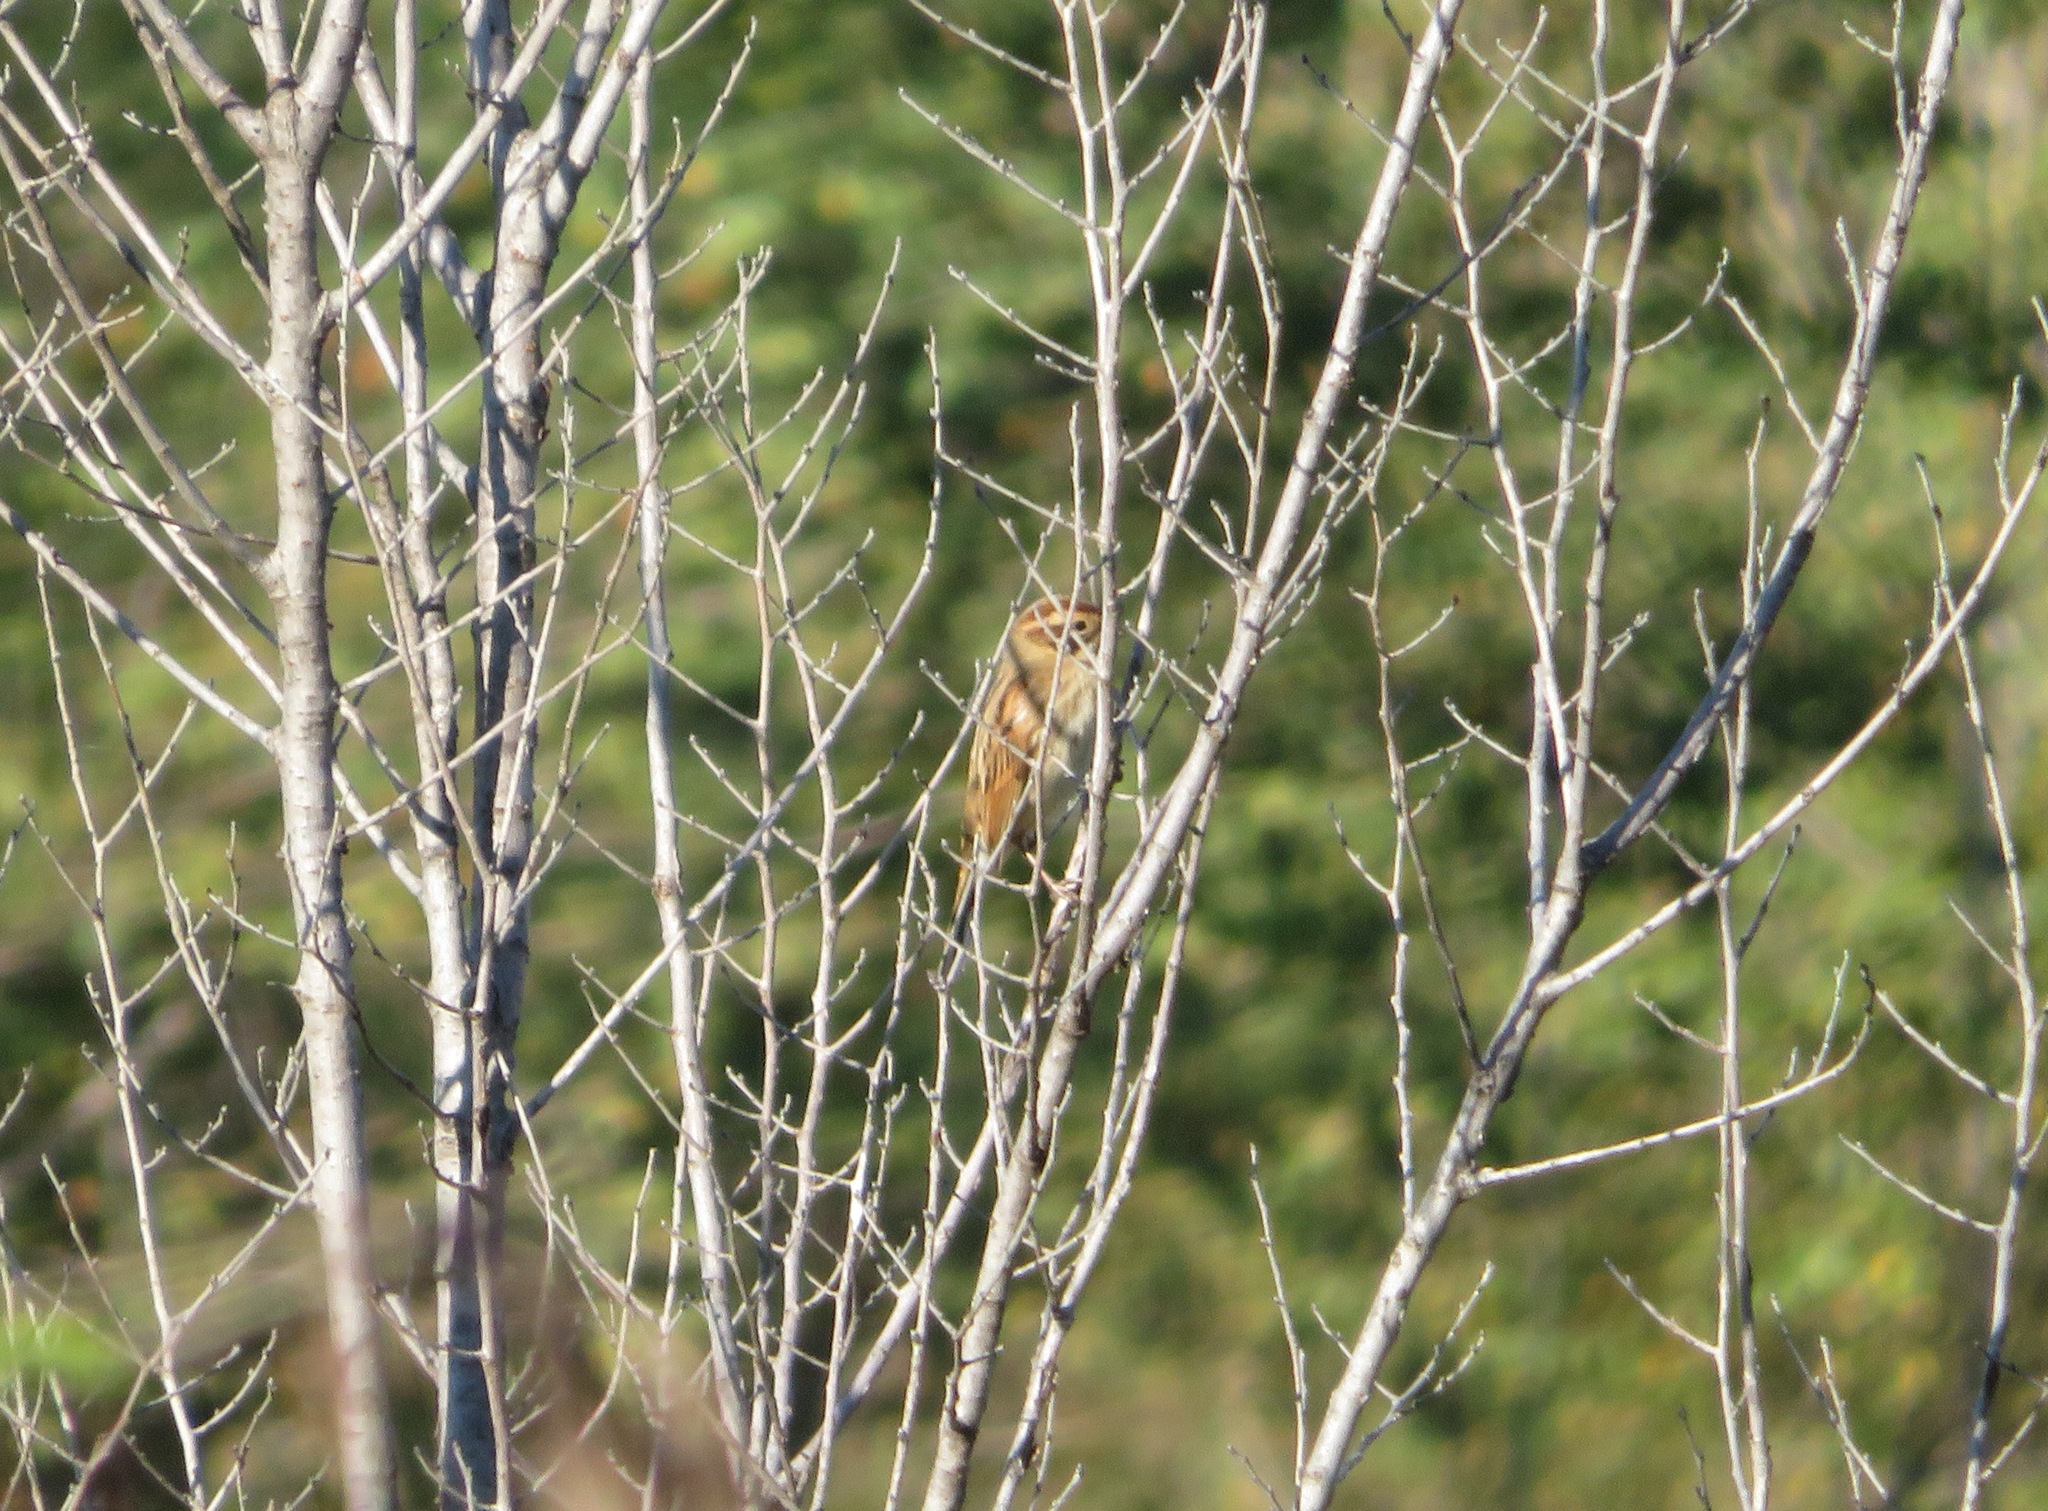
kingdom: Animalia
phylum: Chordata
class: Aves
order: Passeriformes
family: Emberizidae
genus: Emberiza
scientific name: Emberiza schoeniclus
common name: Reed bunting
